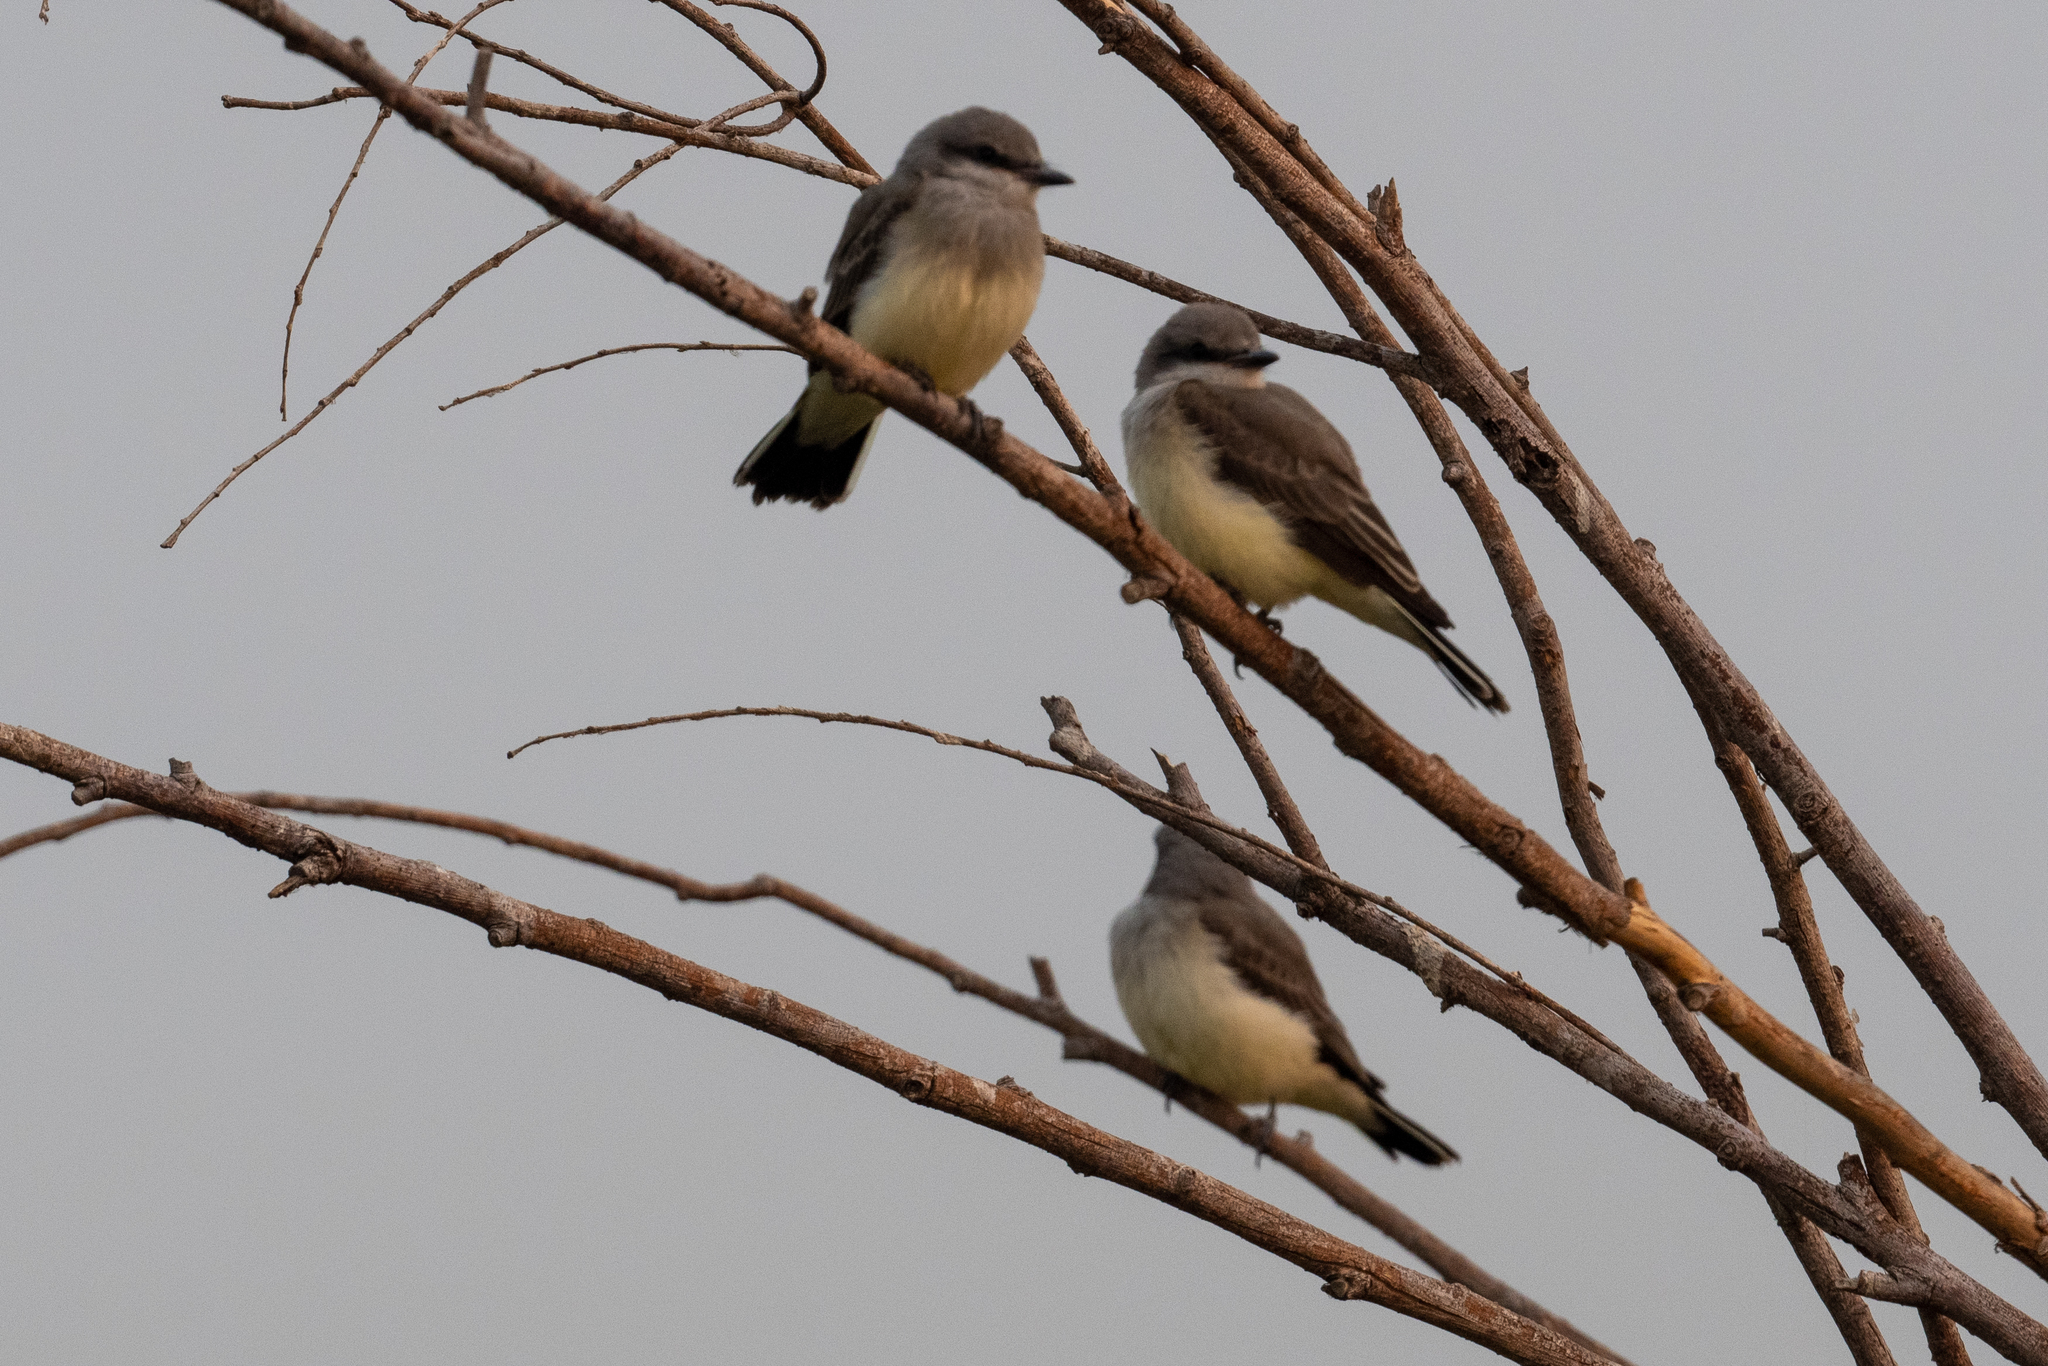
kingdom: Animalia
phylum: Chordata
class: Aves
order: Passeriformes
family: Tyrannidae
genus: Tyrannus
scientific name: Tyrannus verticalis
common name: Western kingbird
